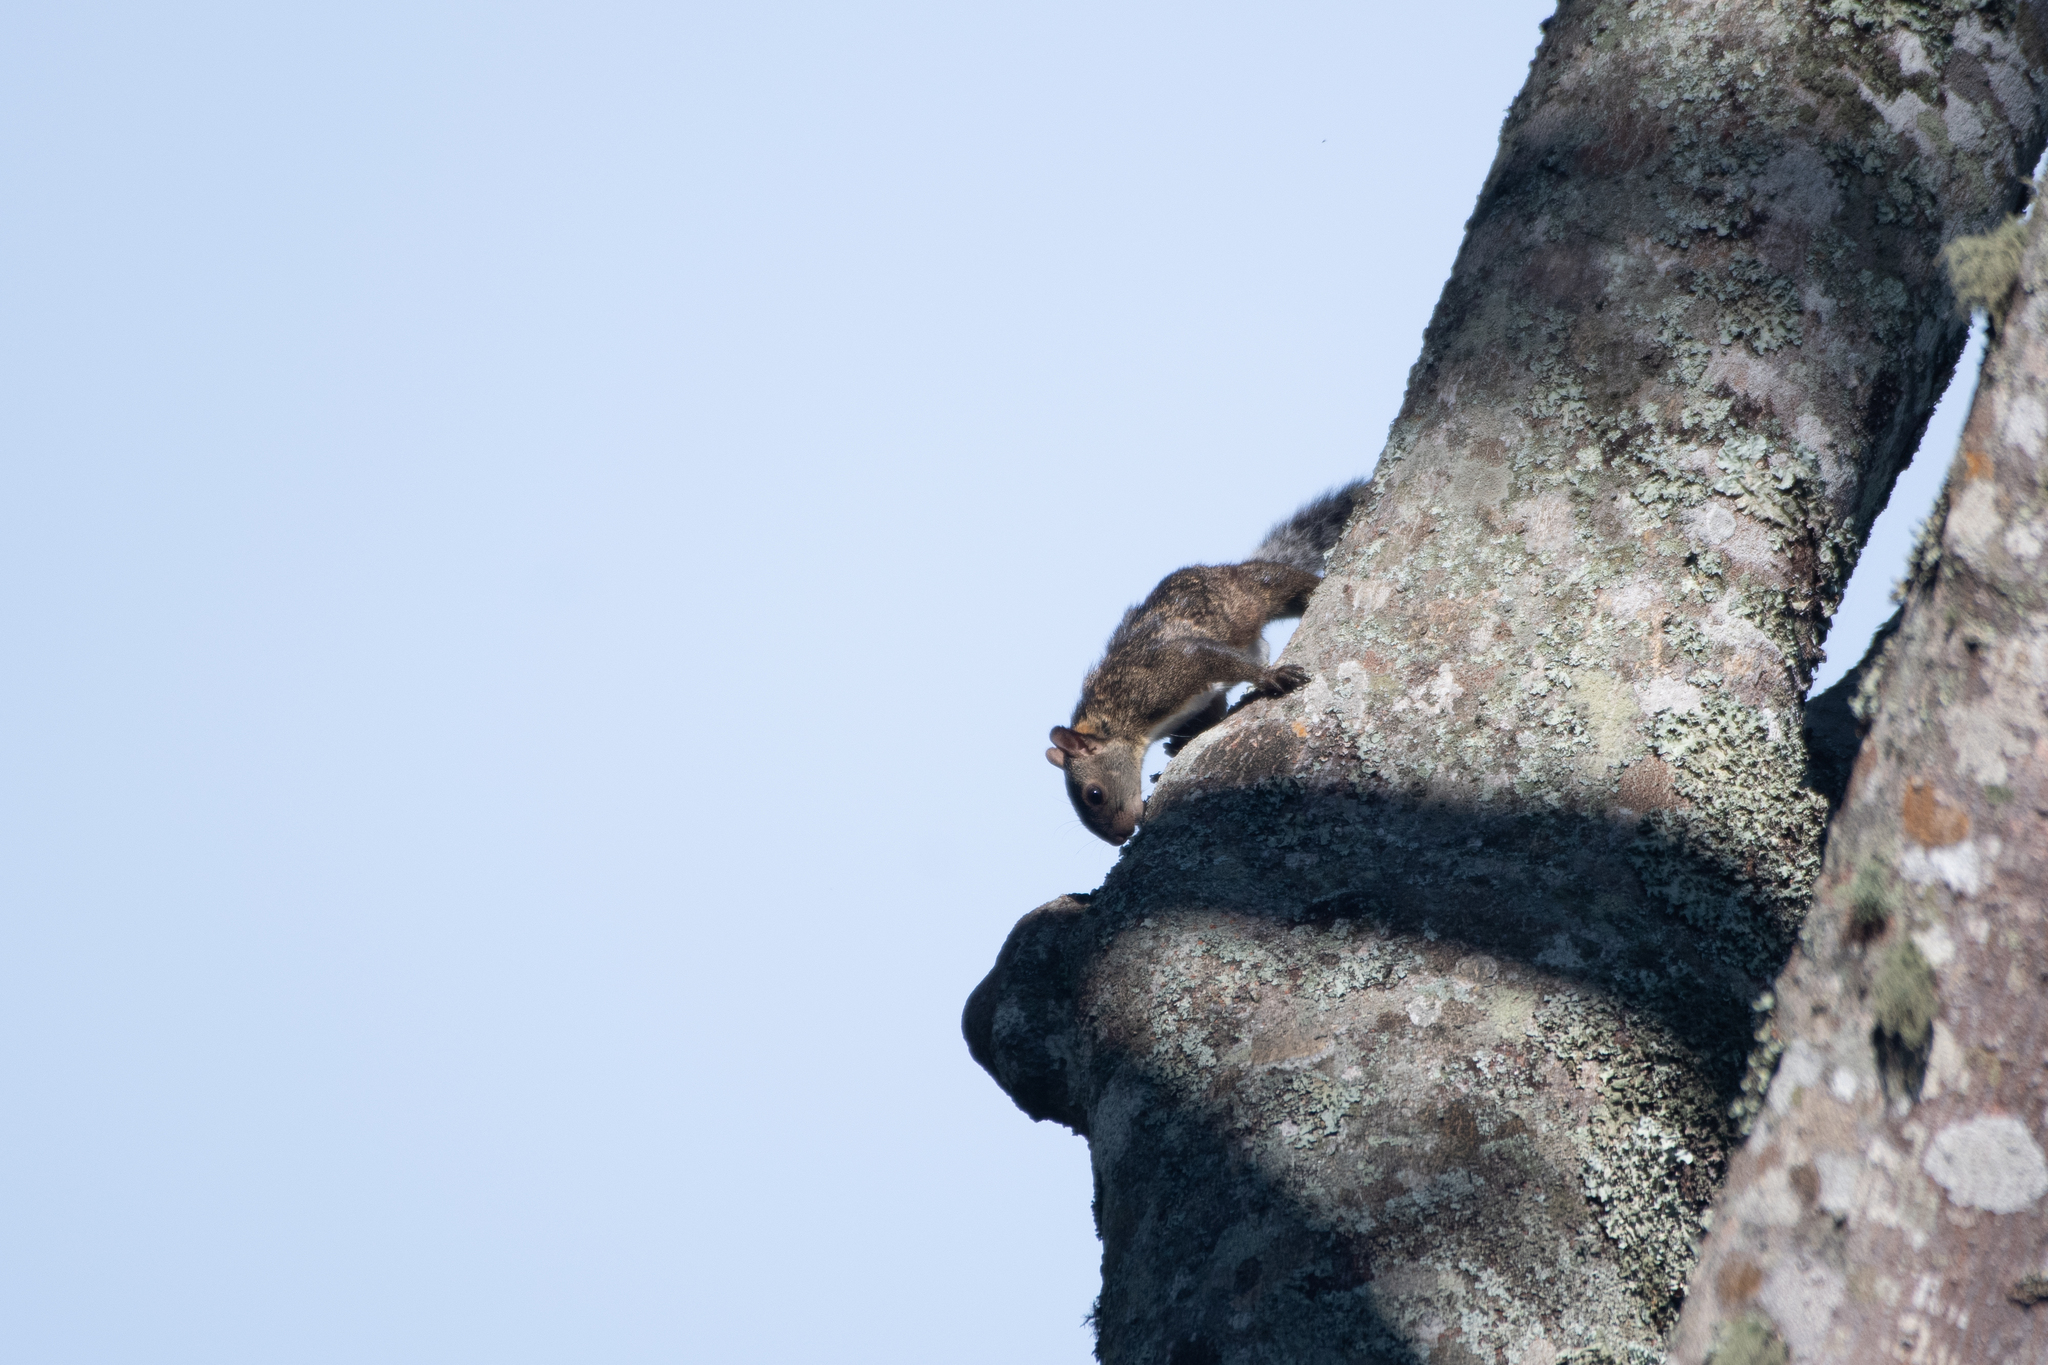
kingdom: Animalia
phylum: Chordata
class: Mammalia
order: Rodentia
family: Sciuridae
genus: Sciurus
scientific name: Sciurus variegatoides
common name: Variegated squirrel
